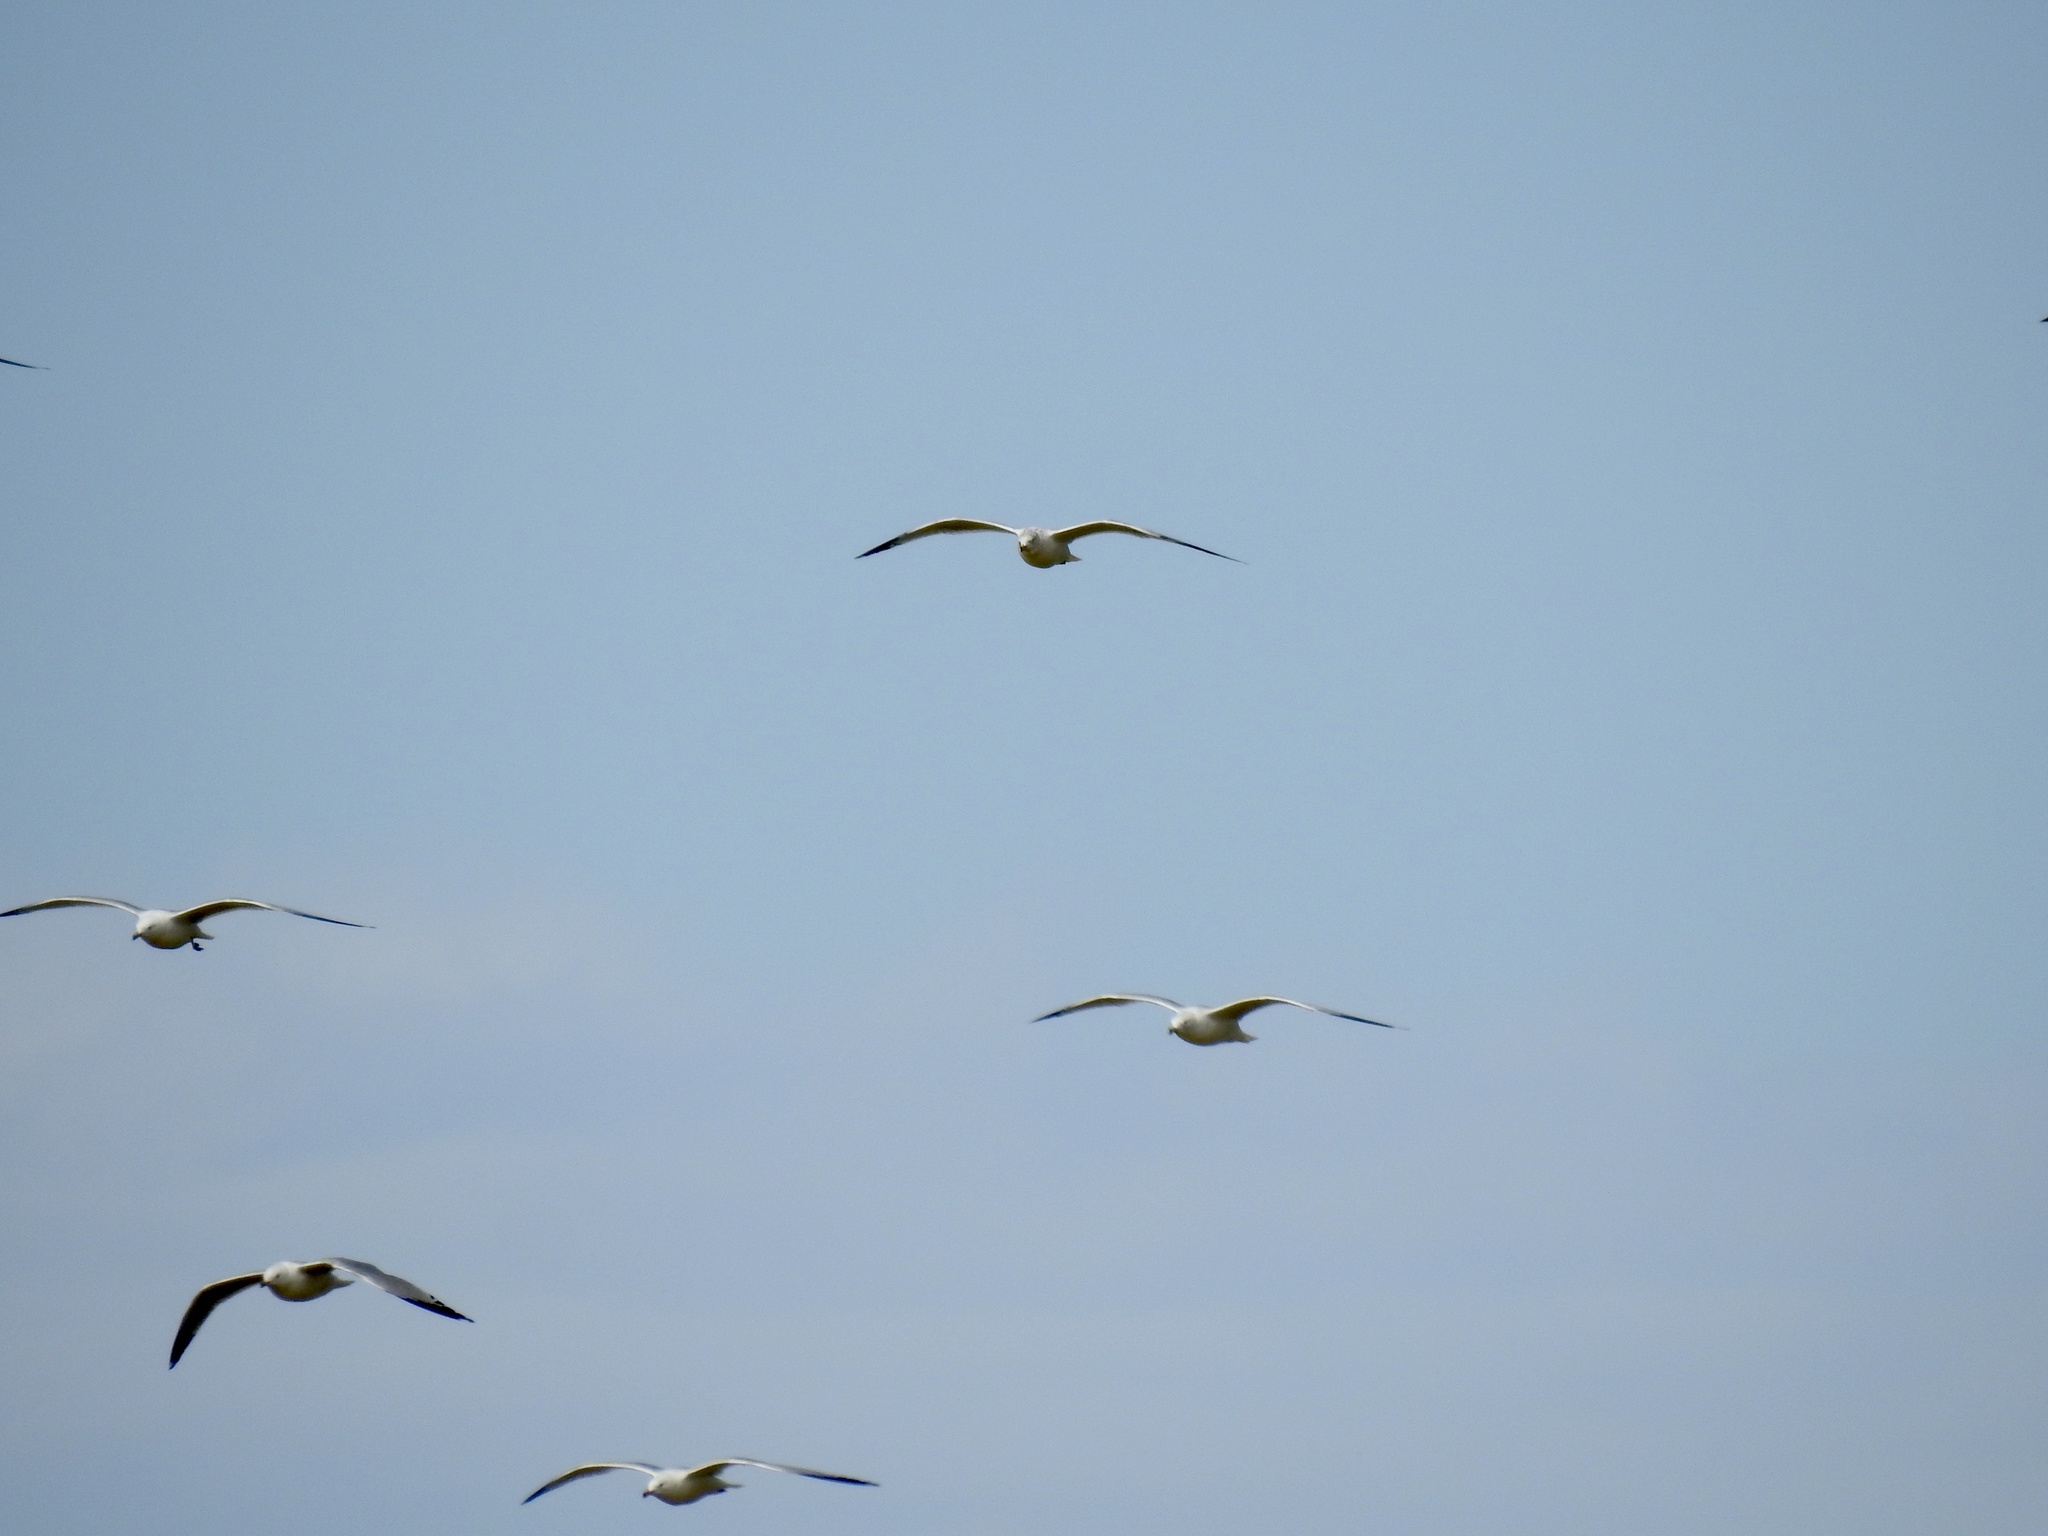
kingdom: Animalia
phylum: Chordata
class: Aves
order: Charadriiformes
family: Laridae
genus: Larus
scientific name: Larus delawarensis
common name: Ring-billed gull
